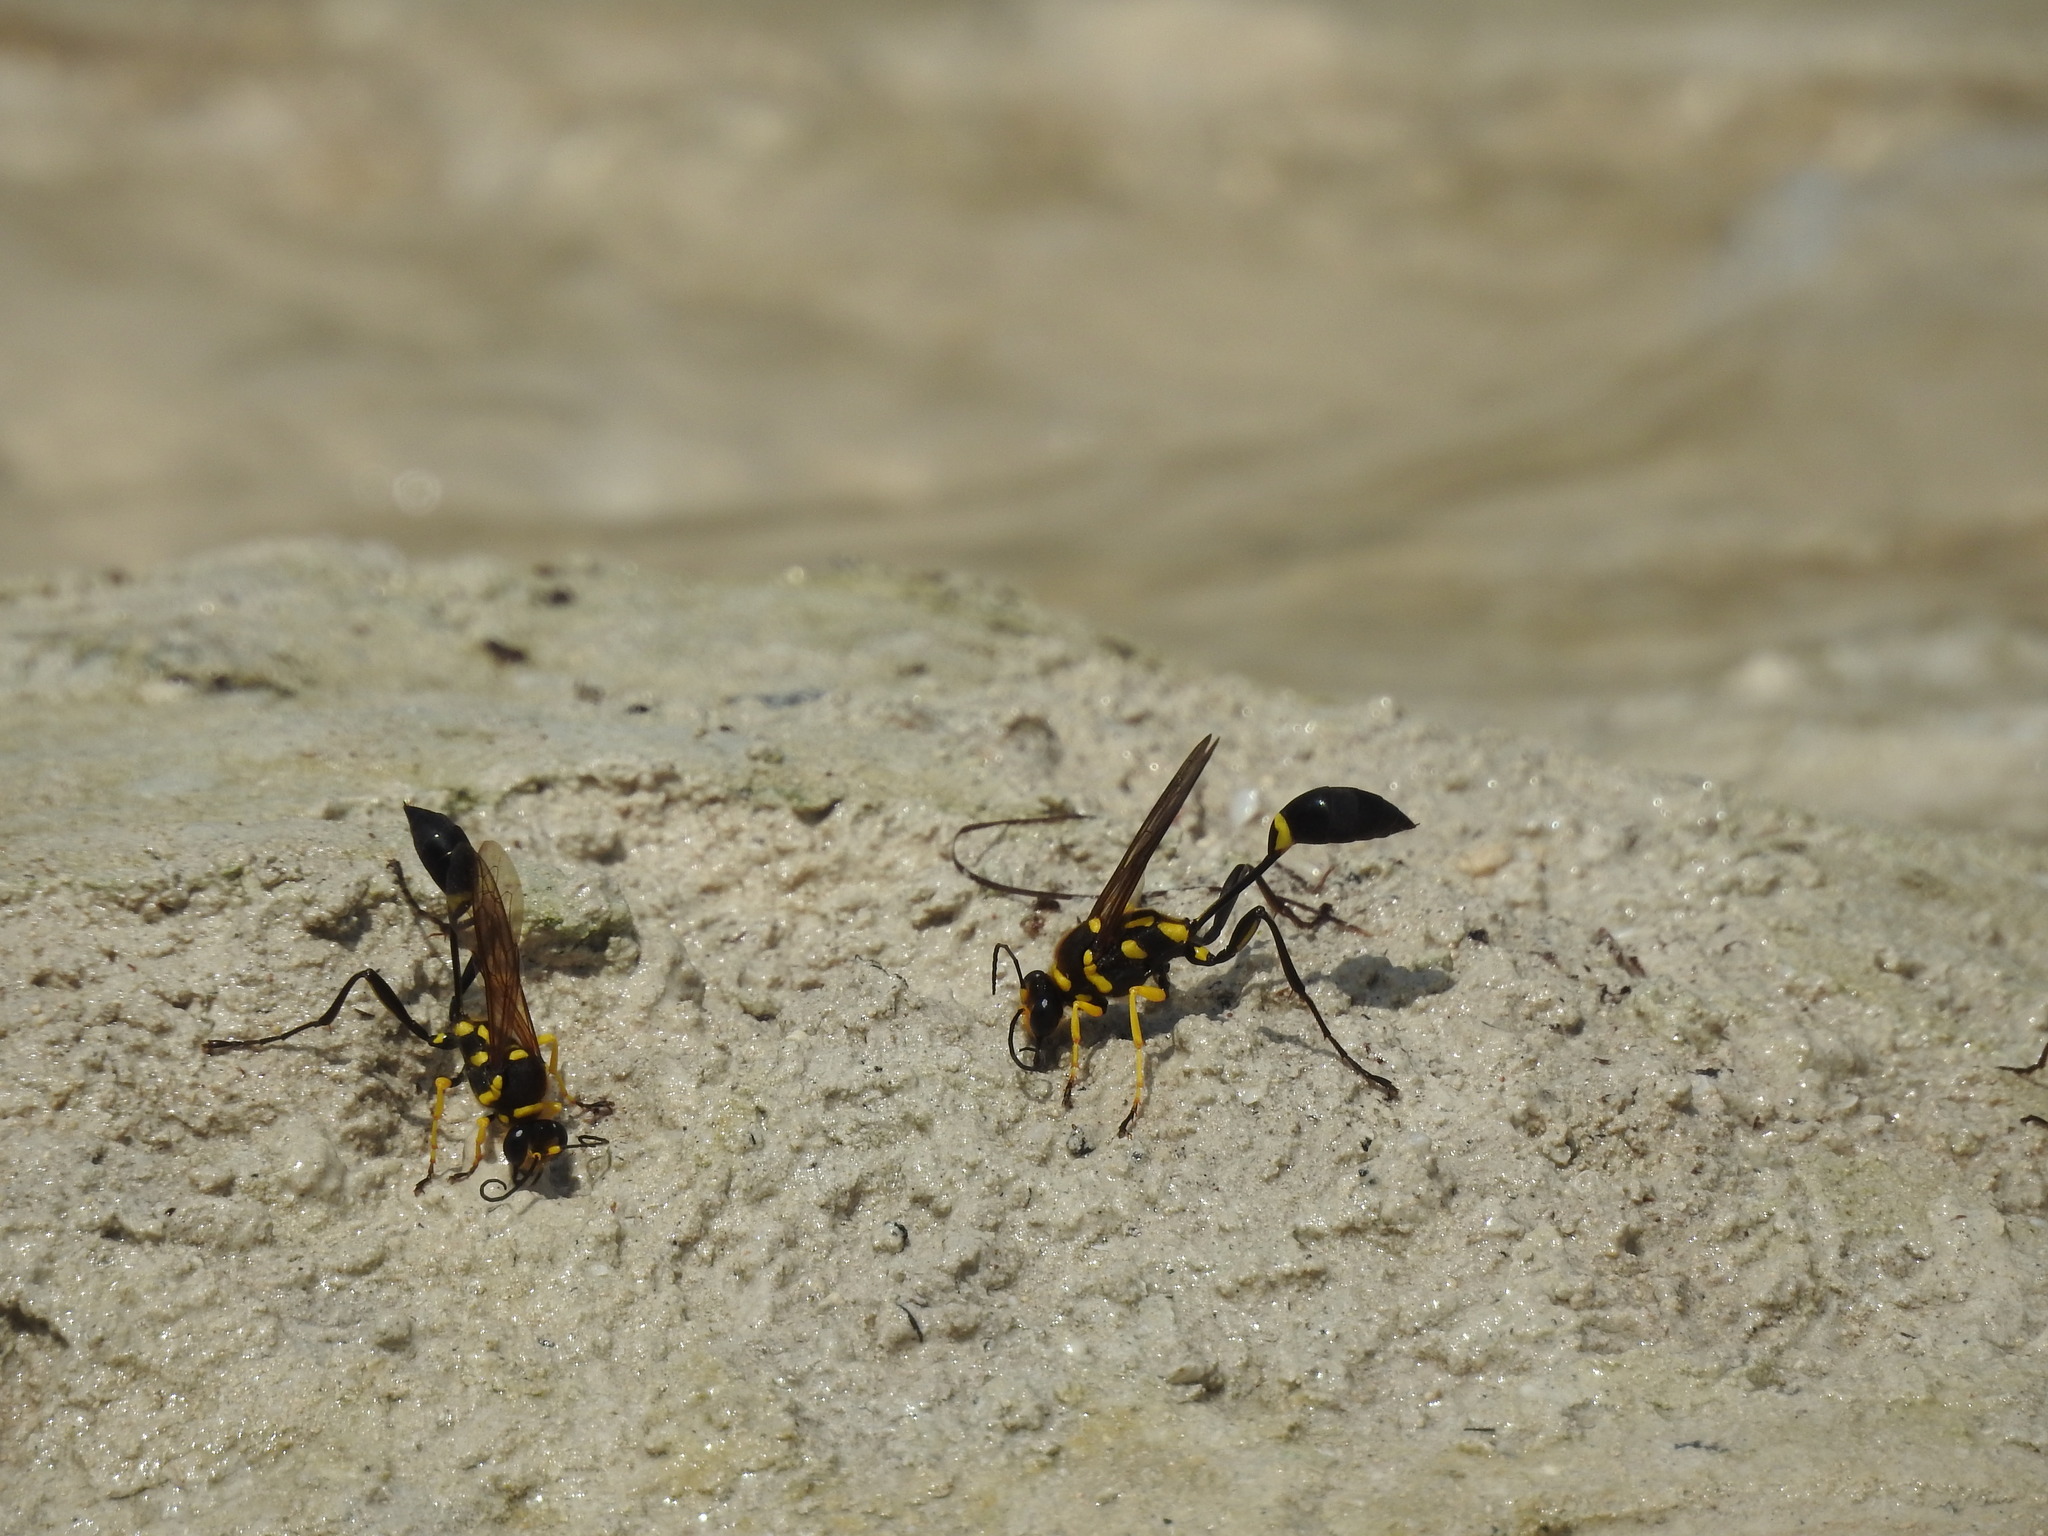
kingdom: Animalia
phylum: Arthropoda
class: Insecta
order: Hymenoptera
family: Sphecidae
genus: Sceliphron
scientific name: Sceliphron fistularium
